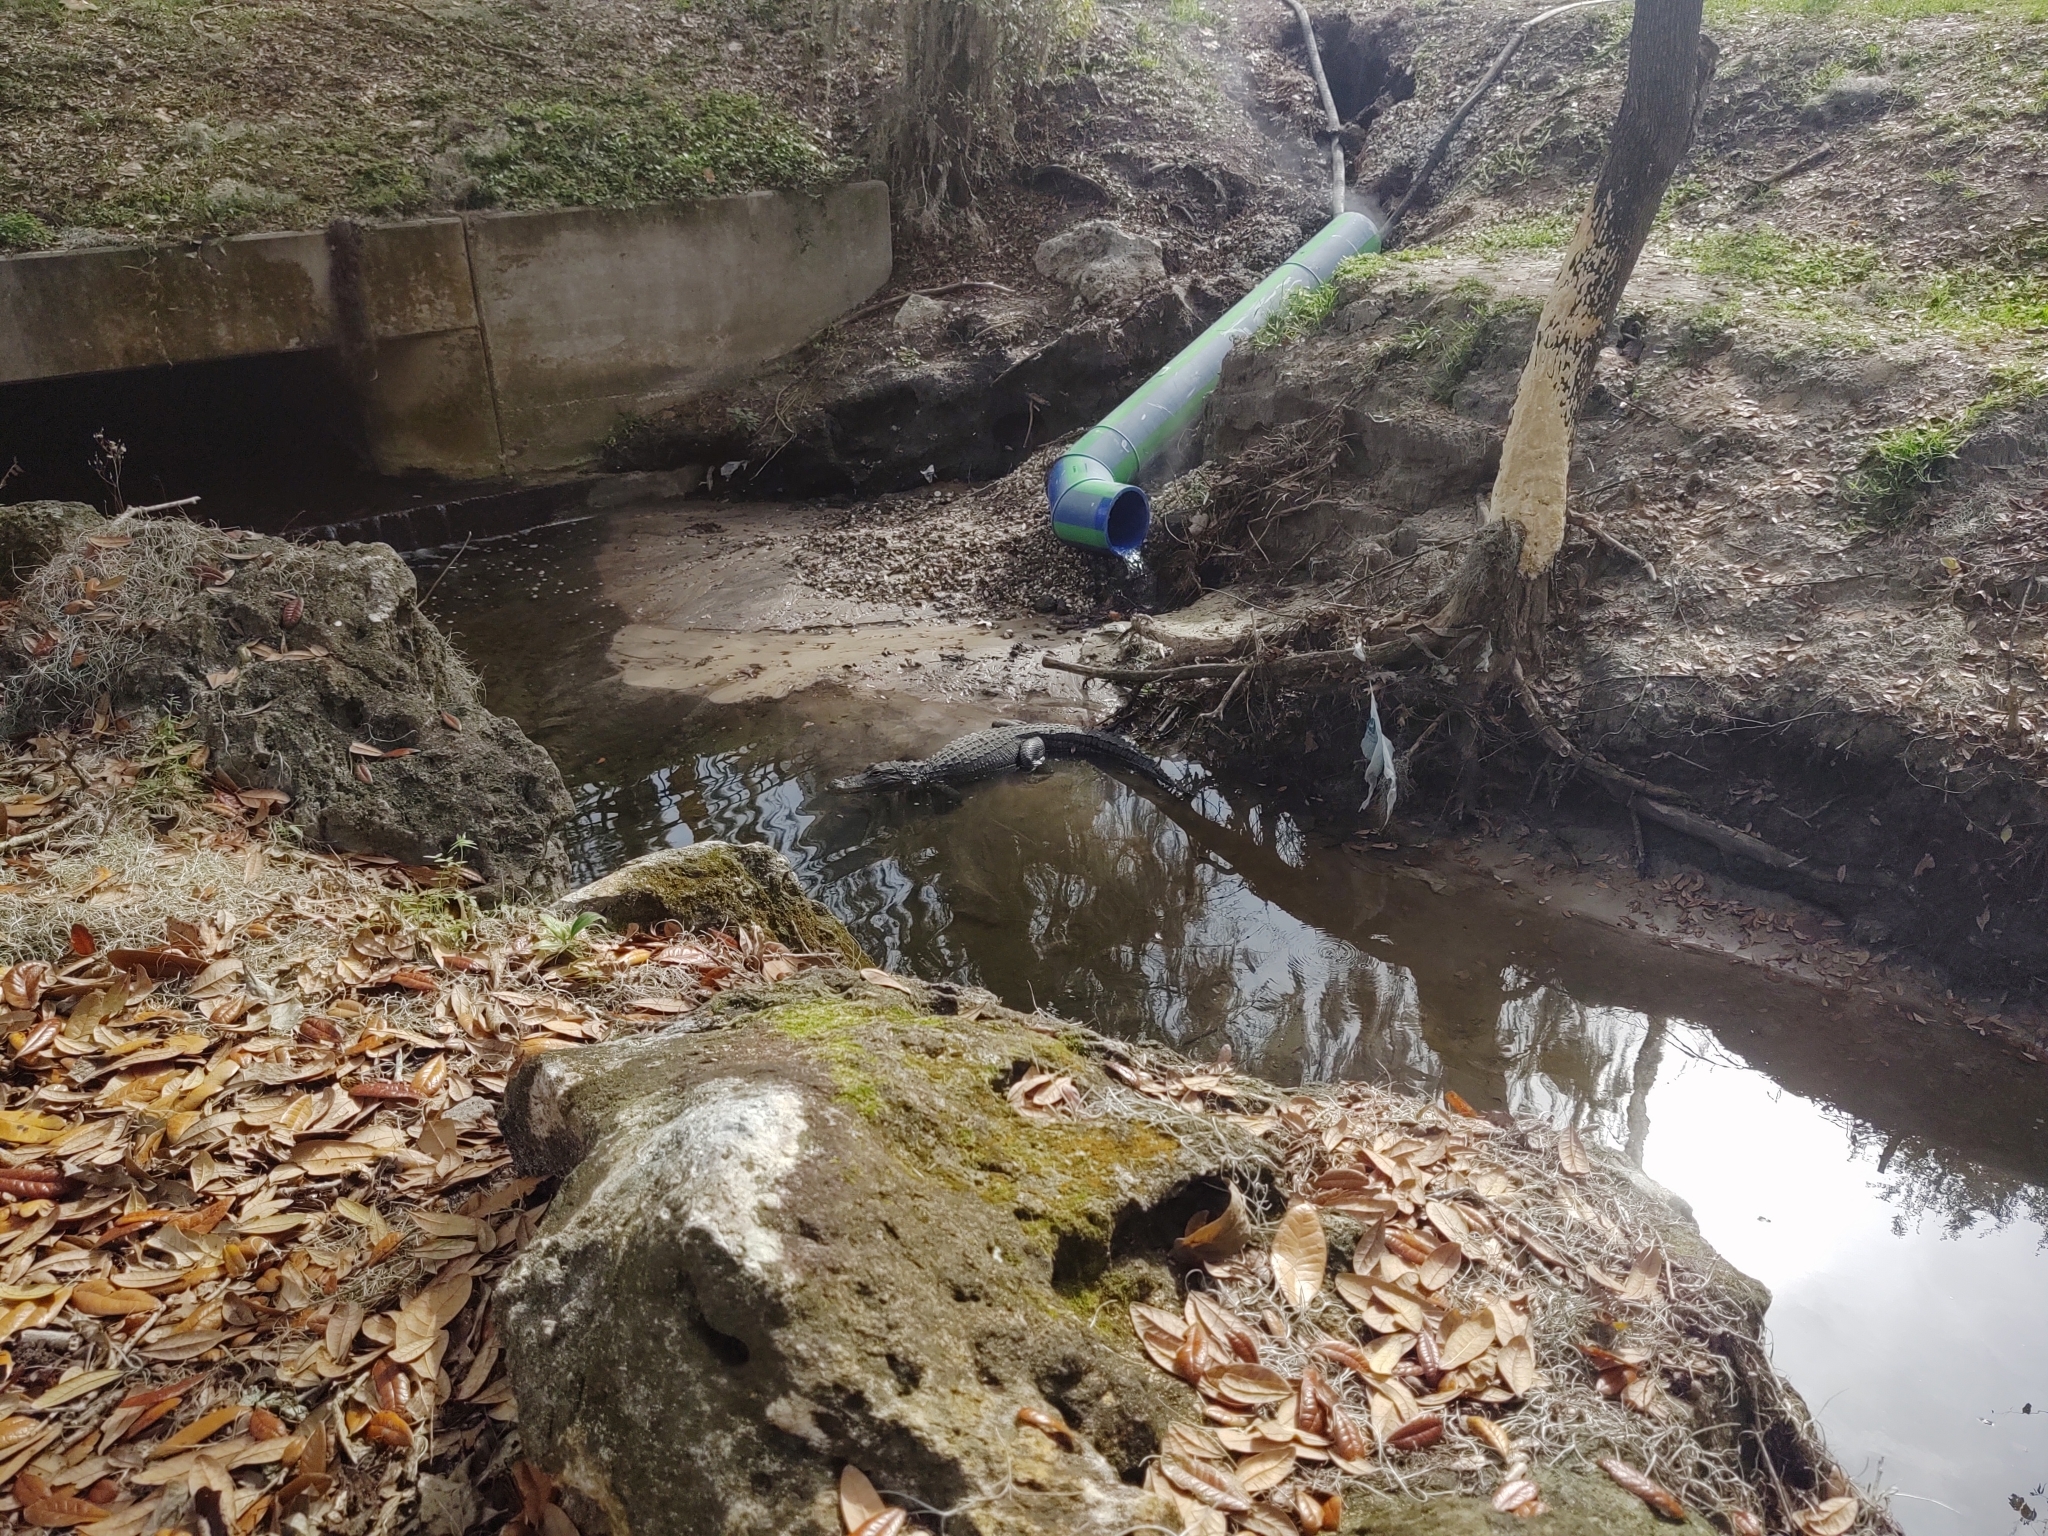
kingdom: Animalia
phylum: Chordata
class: Crocodylia
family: Alligatoridae
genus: Alligator
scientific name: Alligator mississippiensis
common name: American alligator
